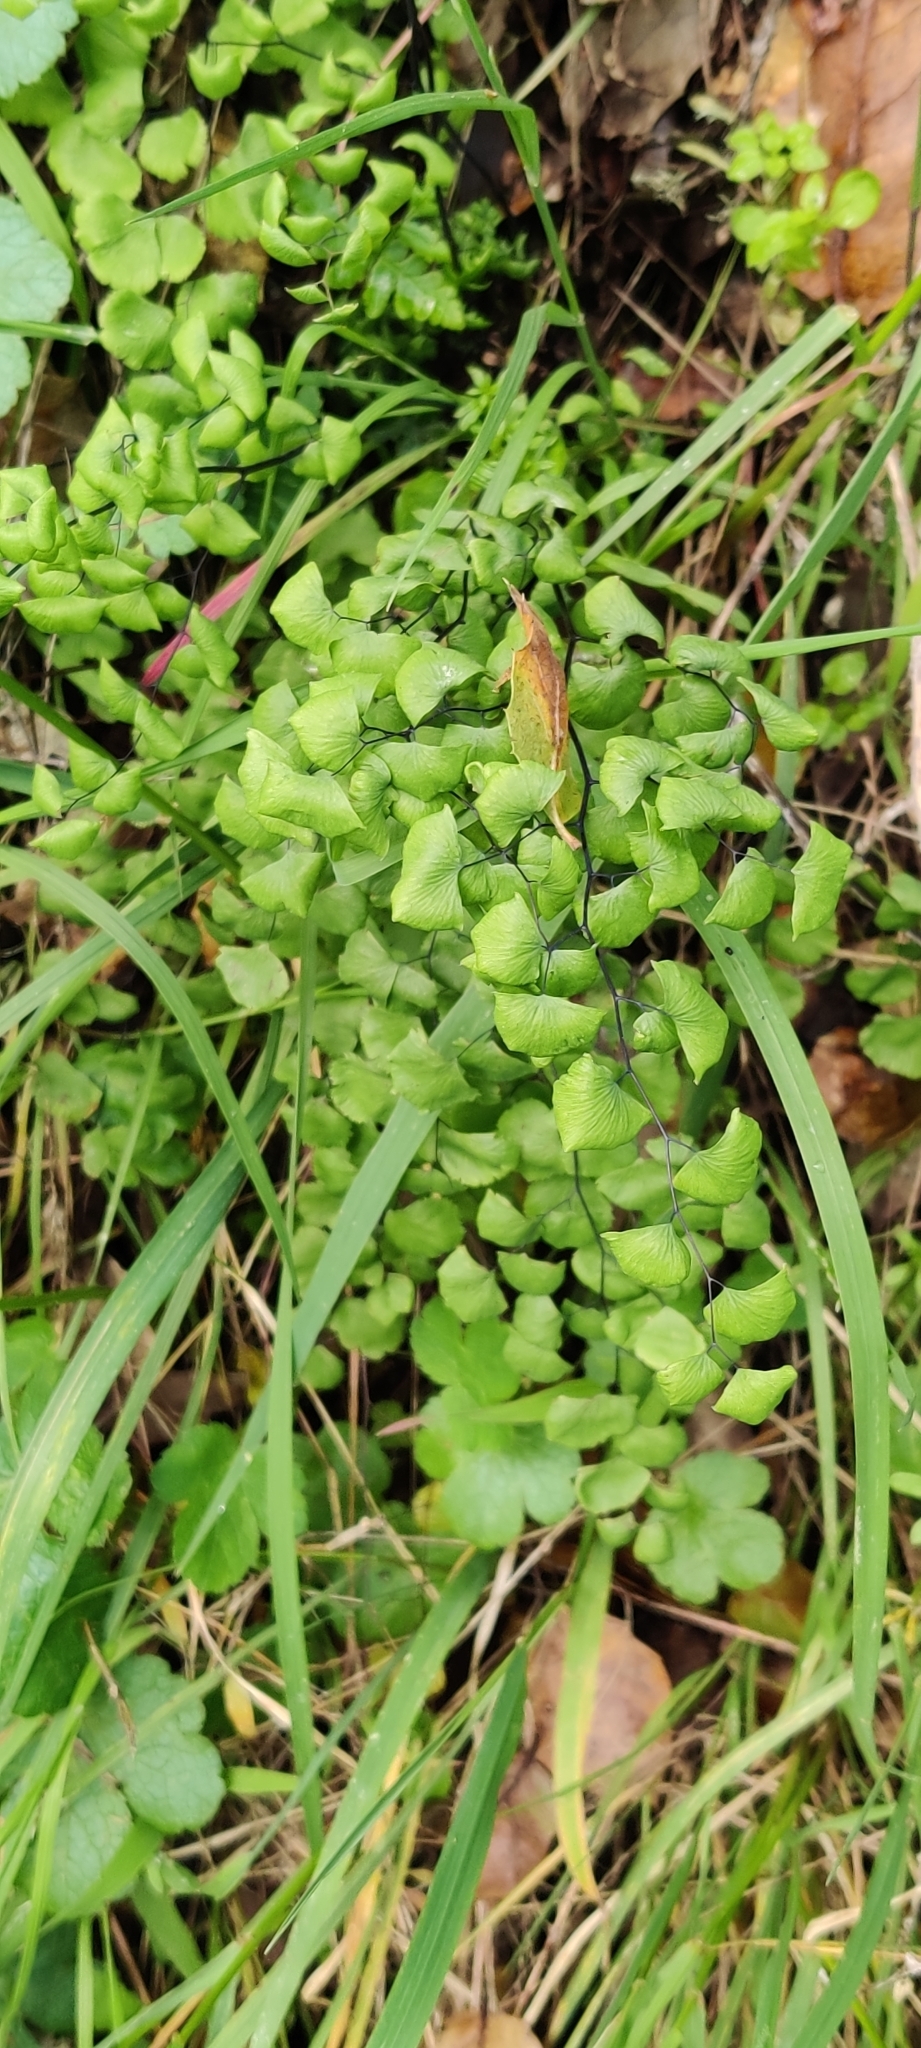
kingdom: Plantae
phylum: Tracheophyta
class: Polypodiopsida
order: Polypodiales
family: Pteridaceae
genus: Adiantum
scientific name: Adiantum jordanii
